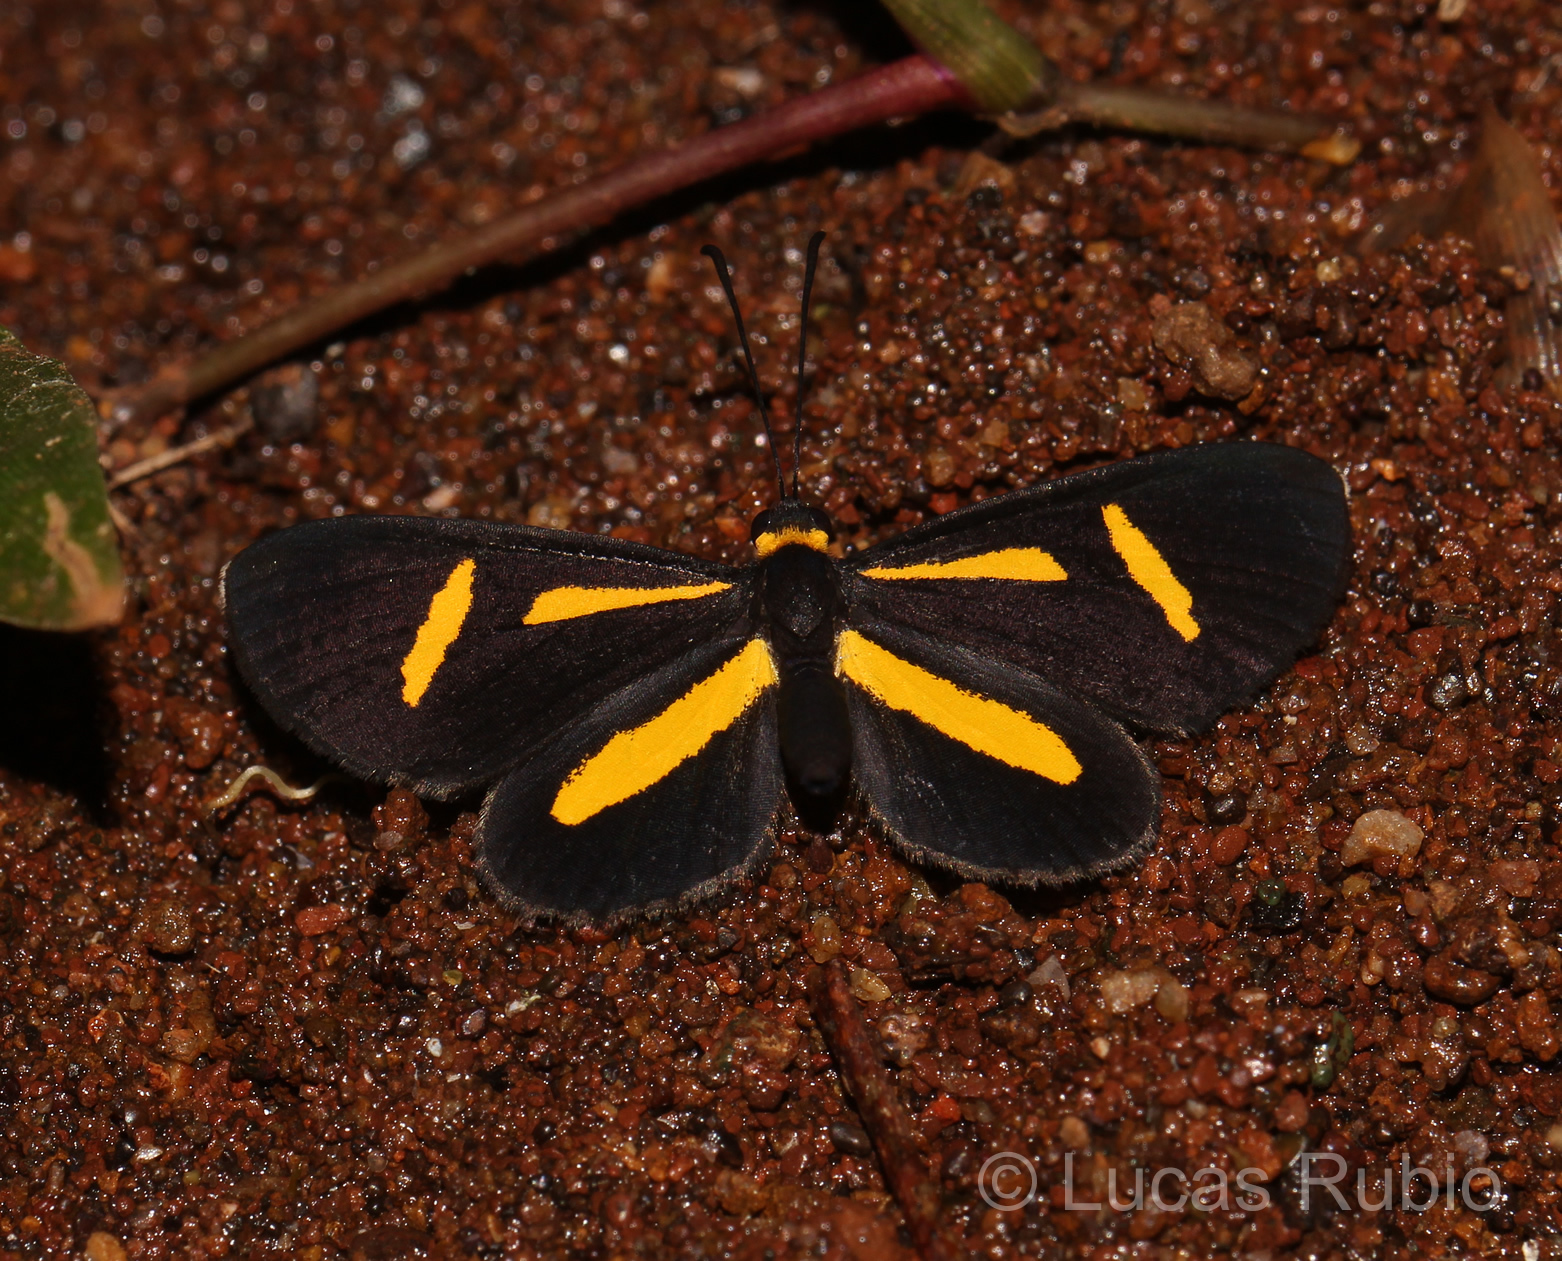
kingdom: Animalia
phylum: Arthropoda
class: Insecta
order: Lepidoptera
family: Riodinidae
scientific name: Riodinidae
